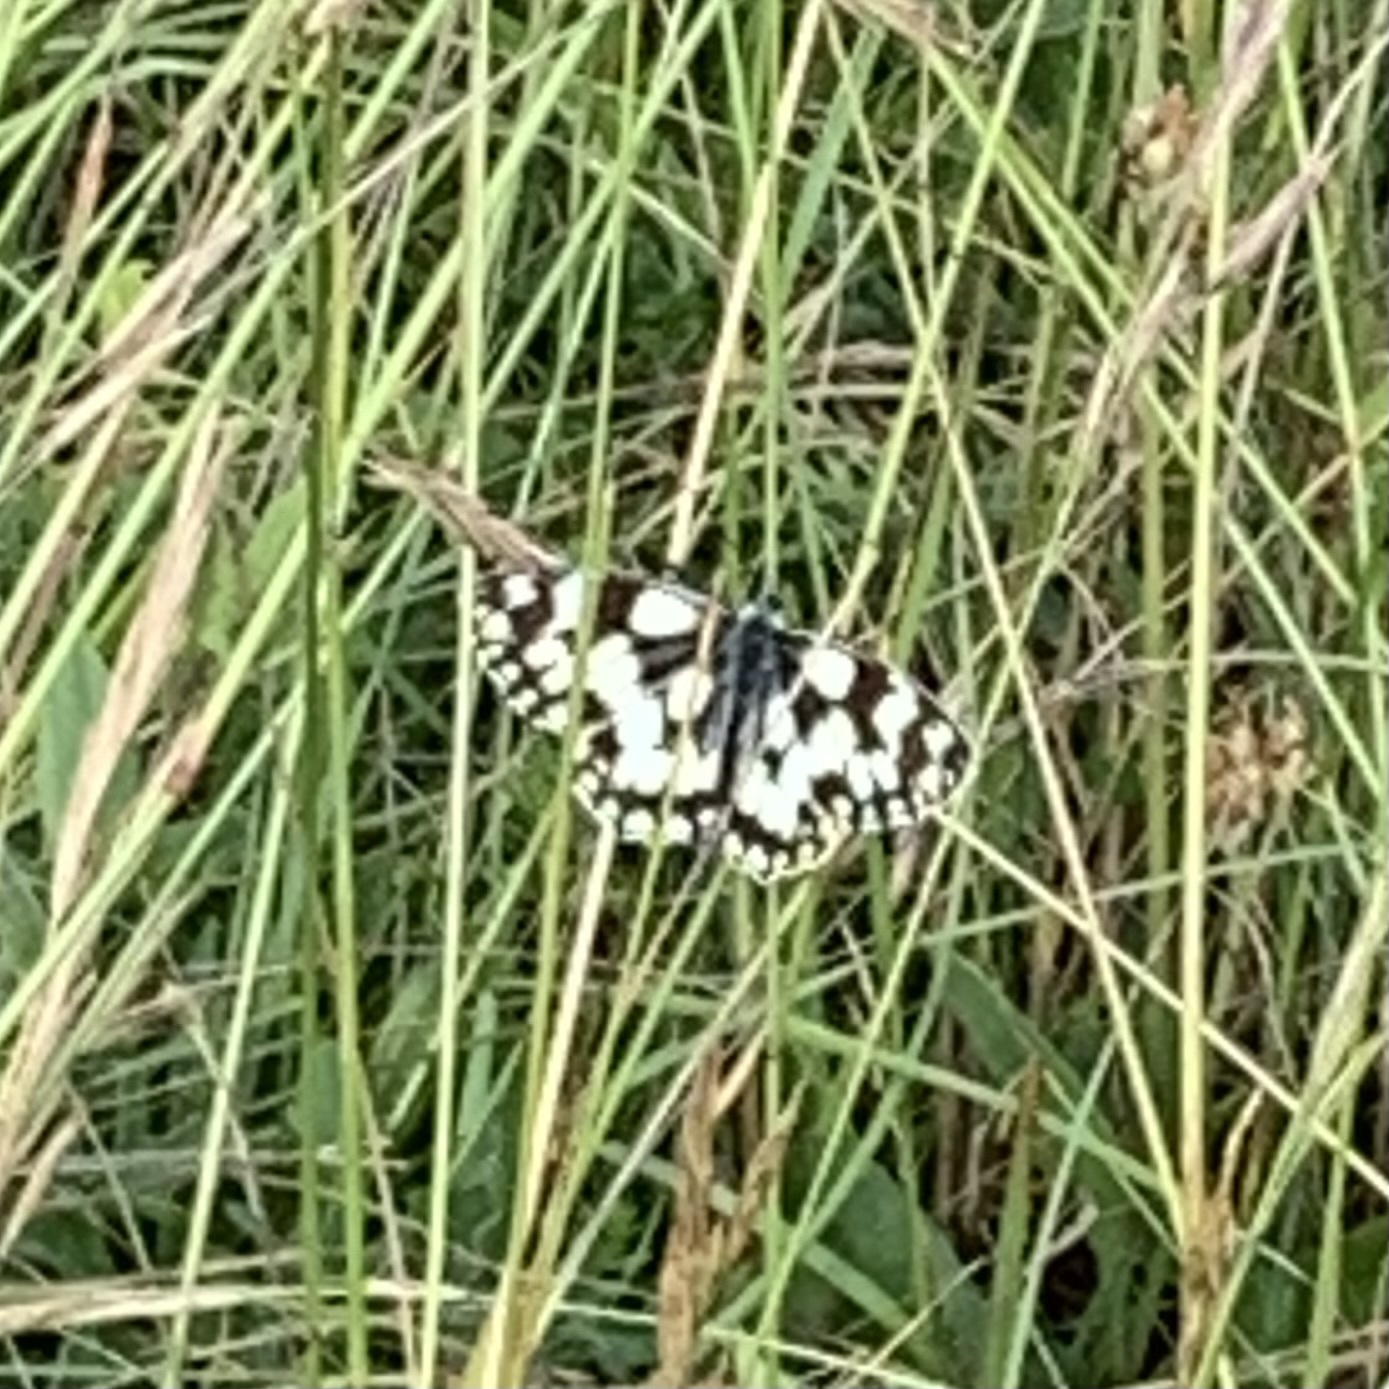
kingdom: Animalia
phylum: Arthropoda
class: Insecta
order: Lepidoptera
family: Nymphalidae
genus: Melanargia
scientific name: Melanargia galathea
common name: Marbled white
